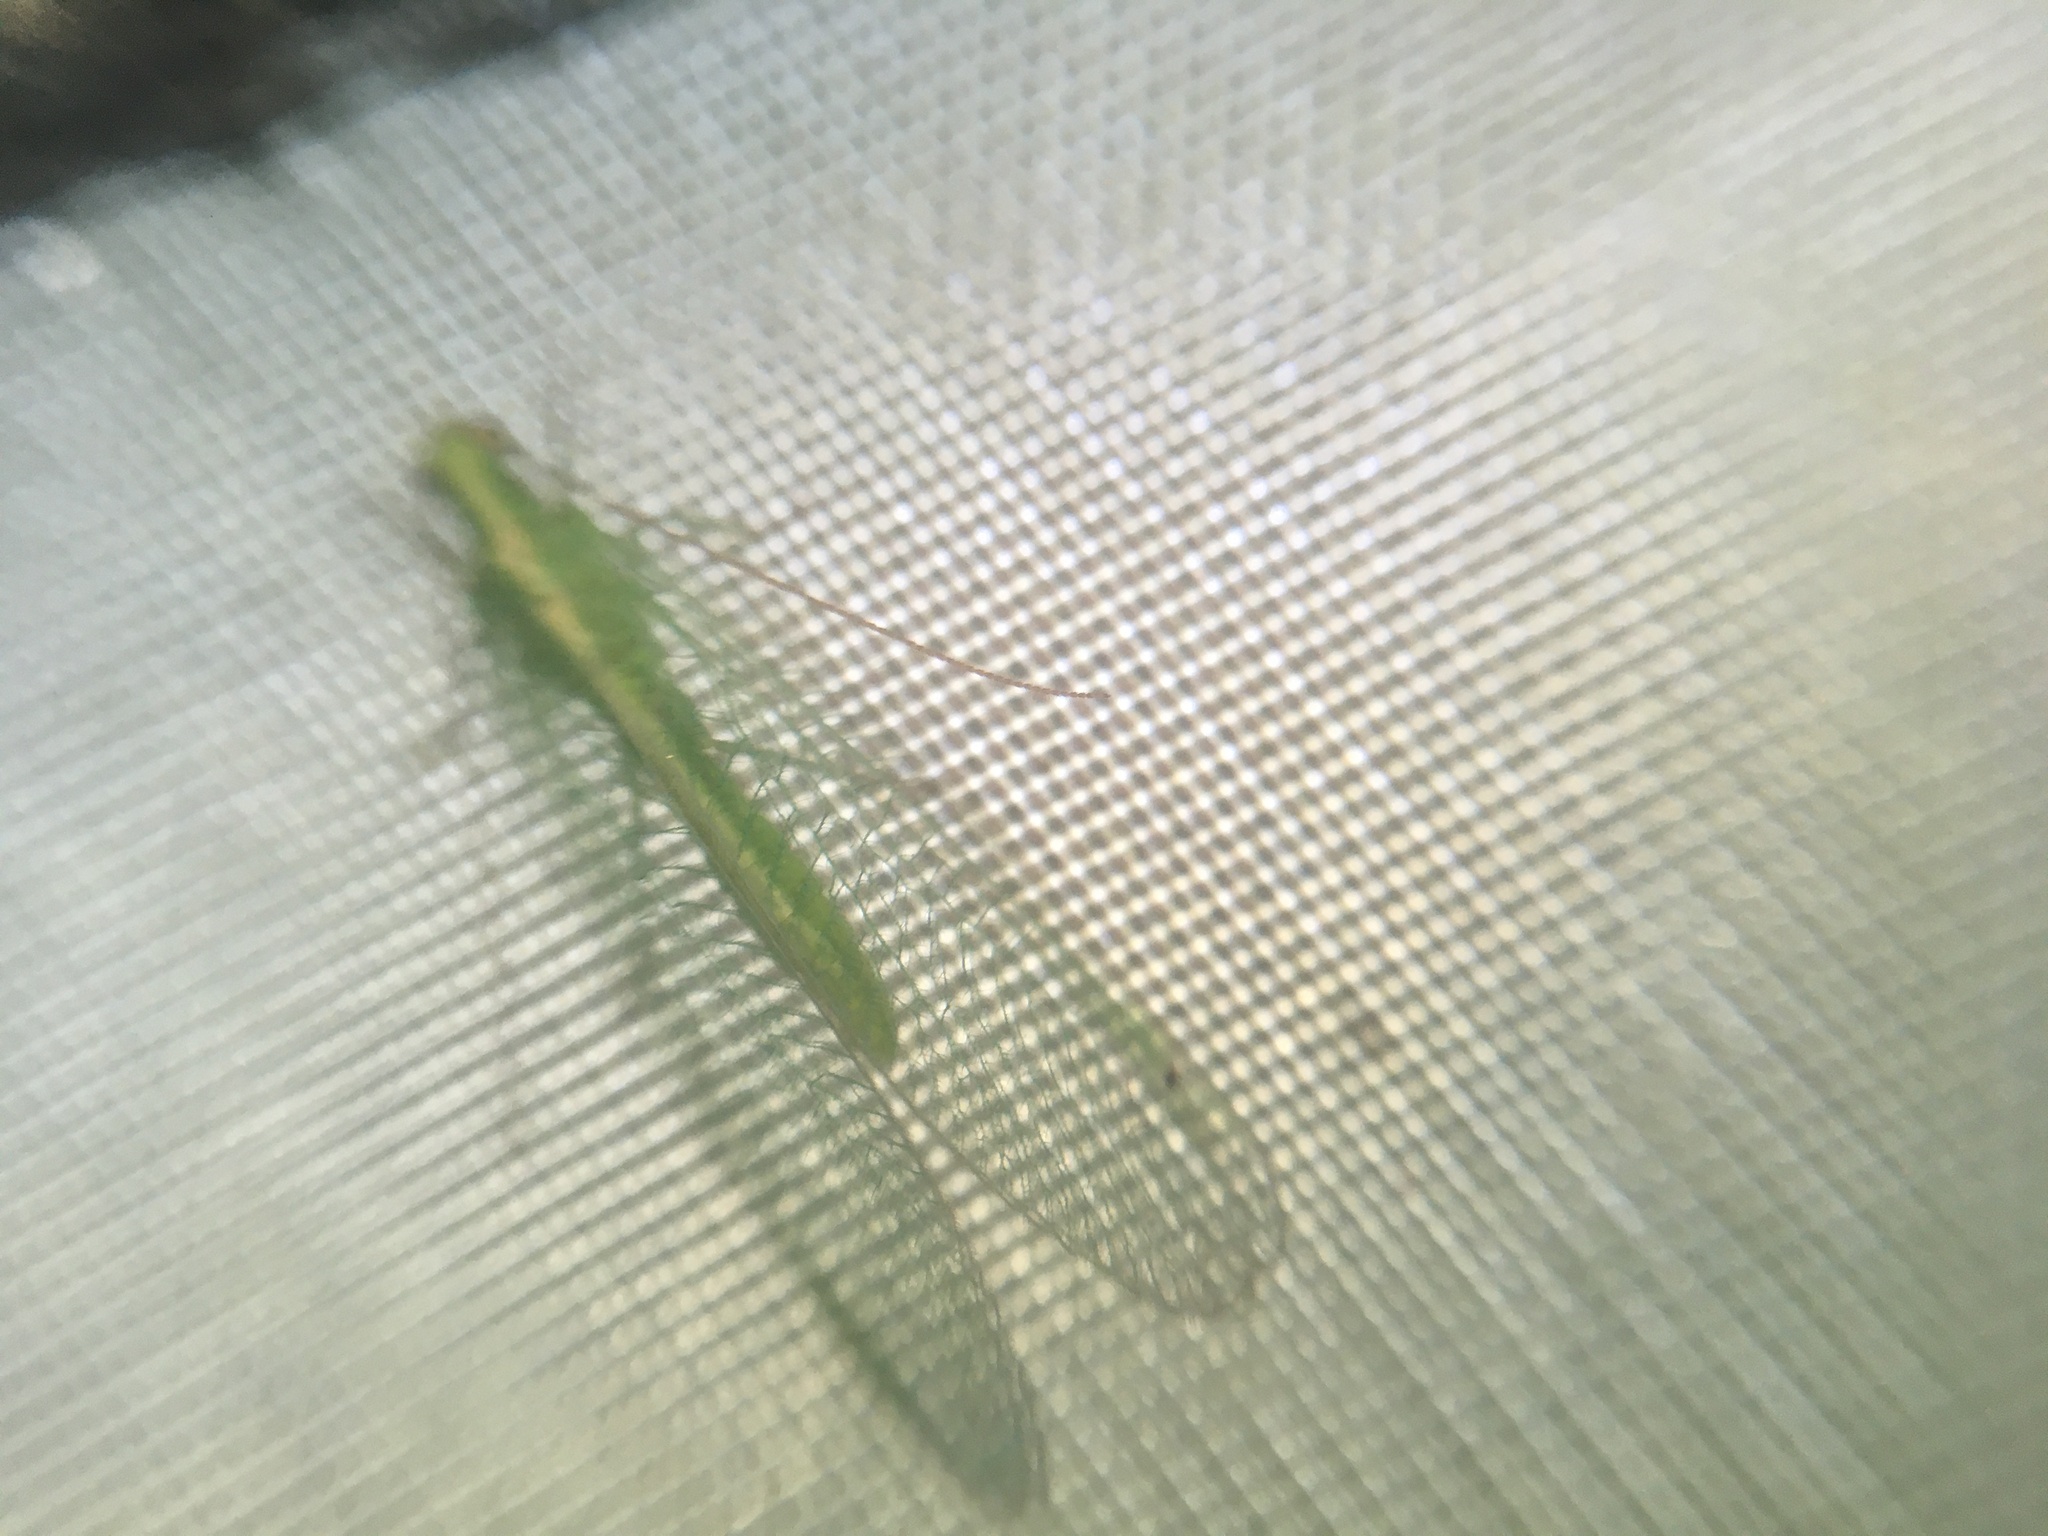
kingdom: Animalia
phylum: Arthropoda
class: Insecta
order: Neuroptera
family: Chrysopidae
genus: Chrysoperla
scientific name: Chrysoperla
